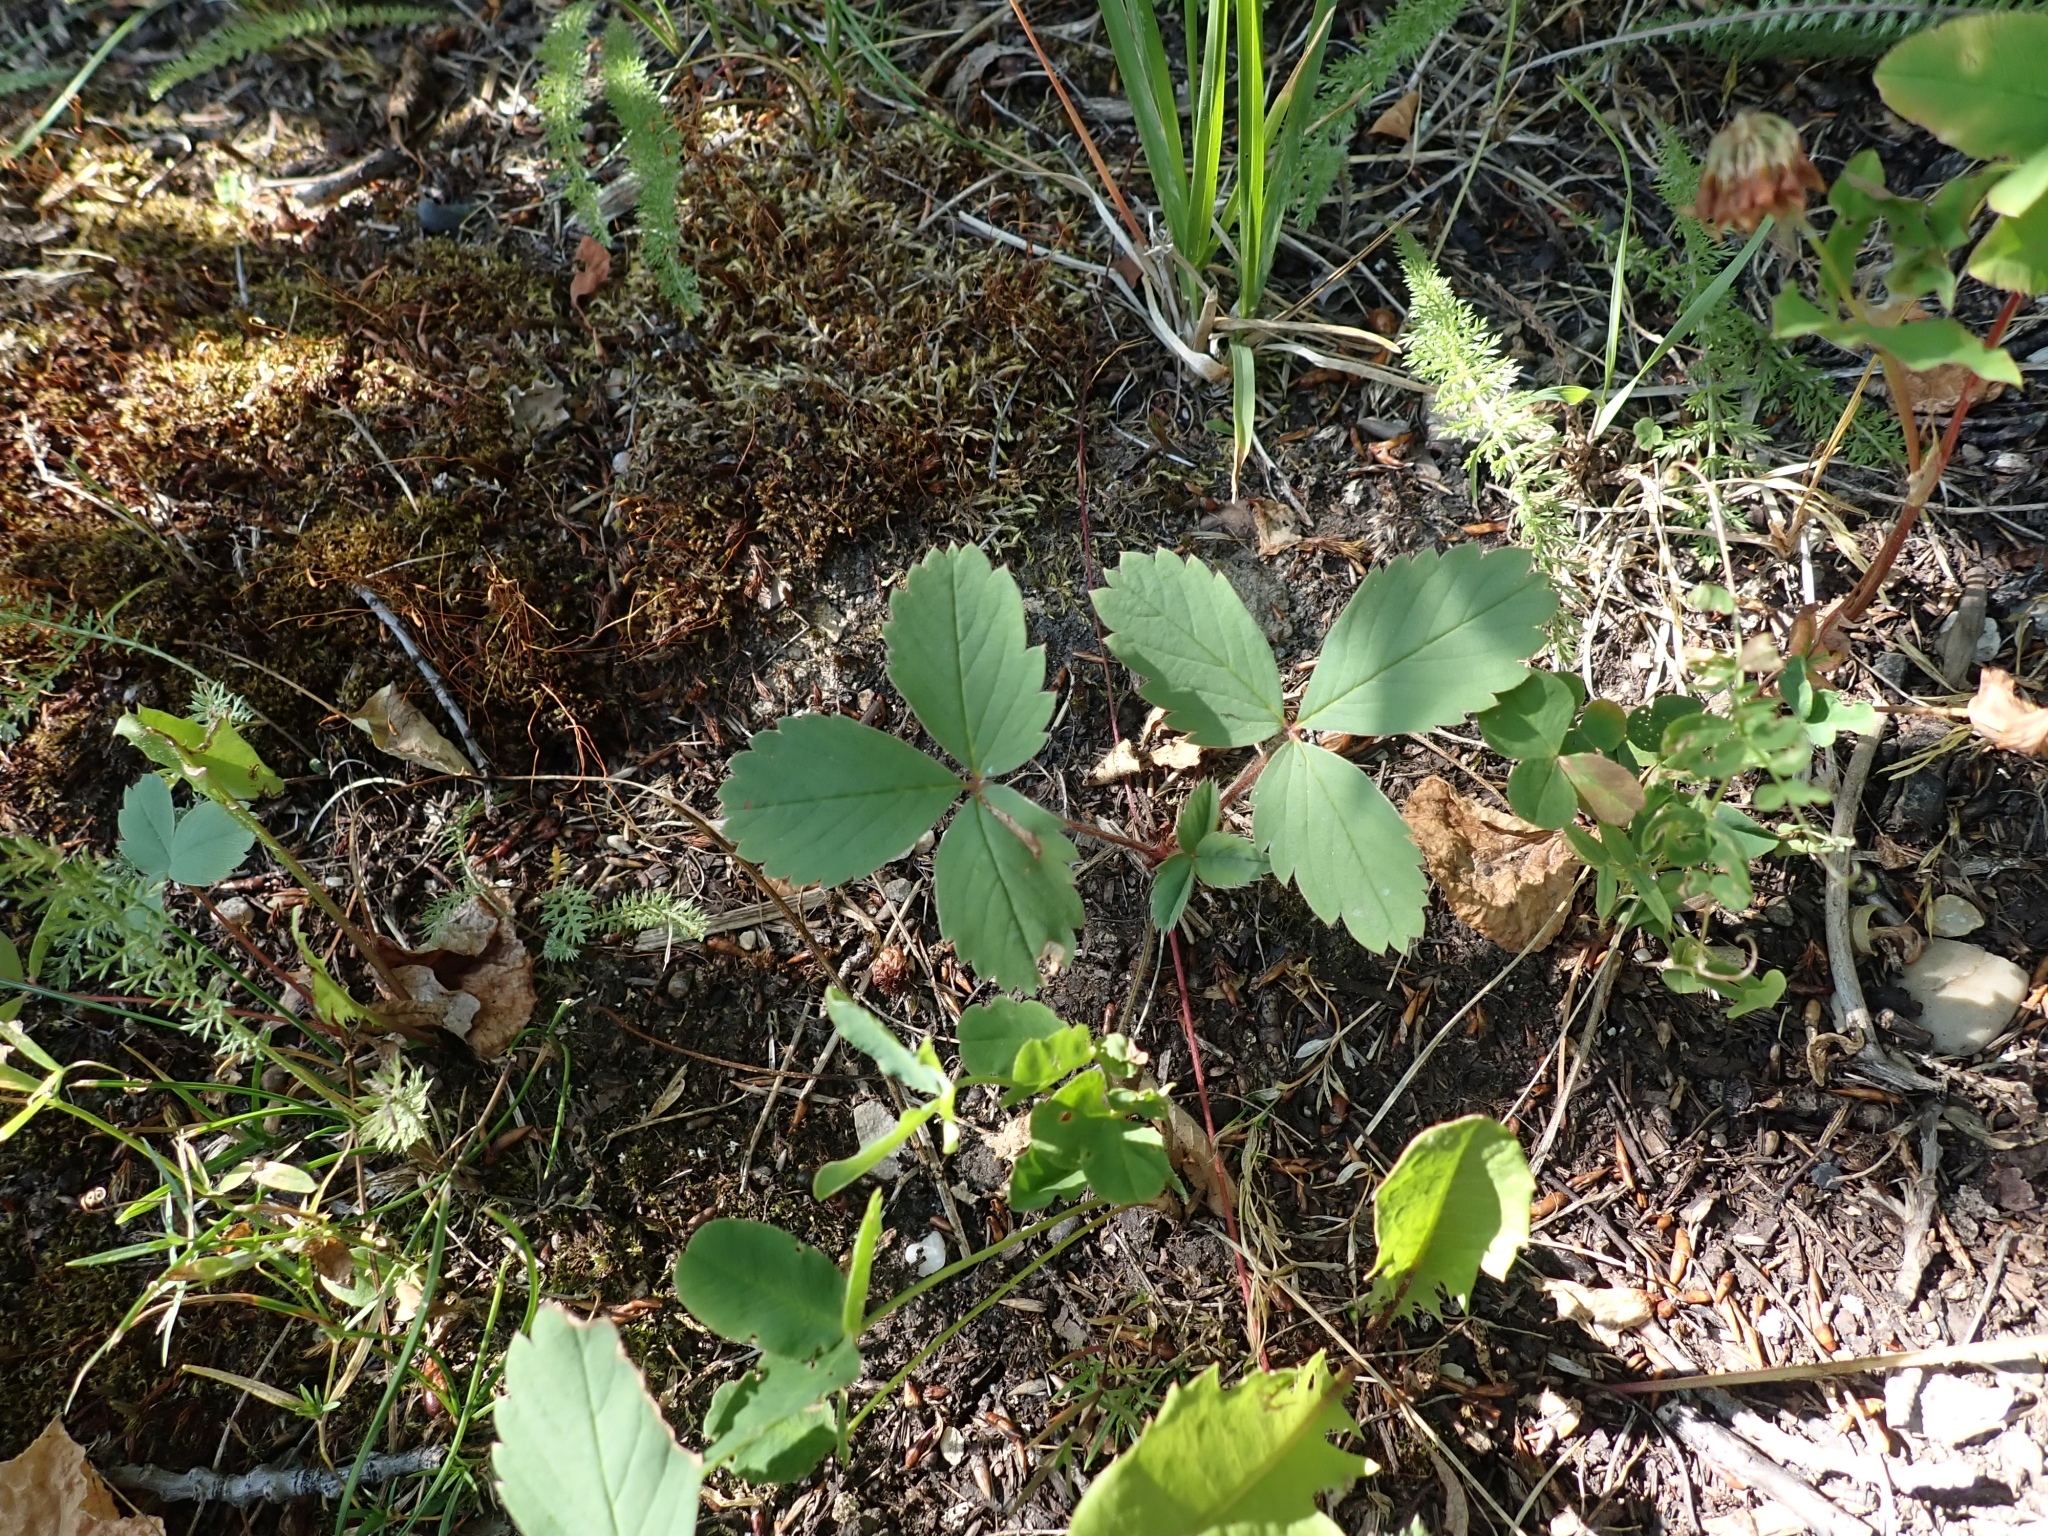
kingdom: Plantae
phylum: Tracheophyta
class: Magnoliopsida
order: Rosales
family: Rosaceae
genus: Fragaria
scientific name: Fragaria virginiana
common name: Thickleaved wild strawberry
